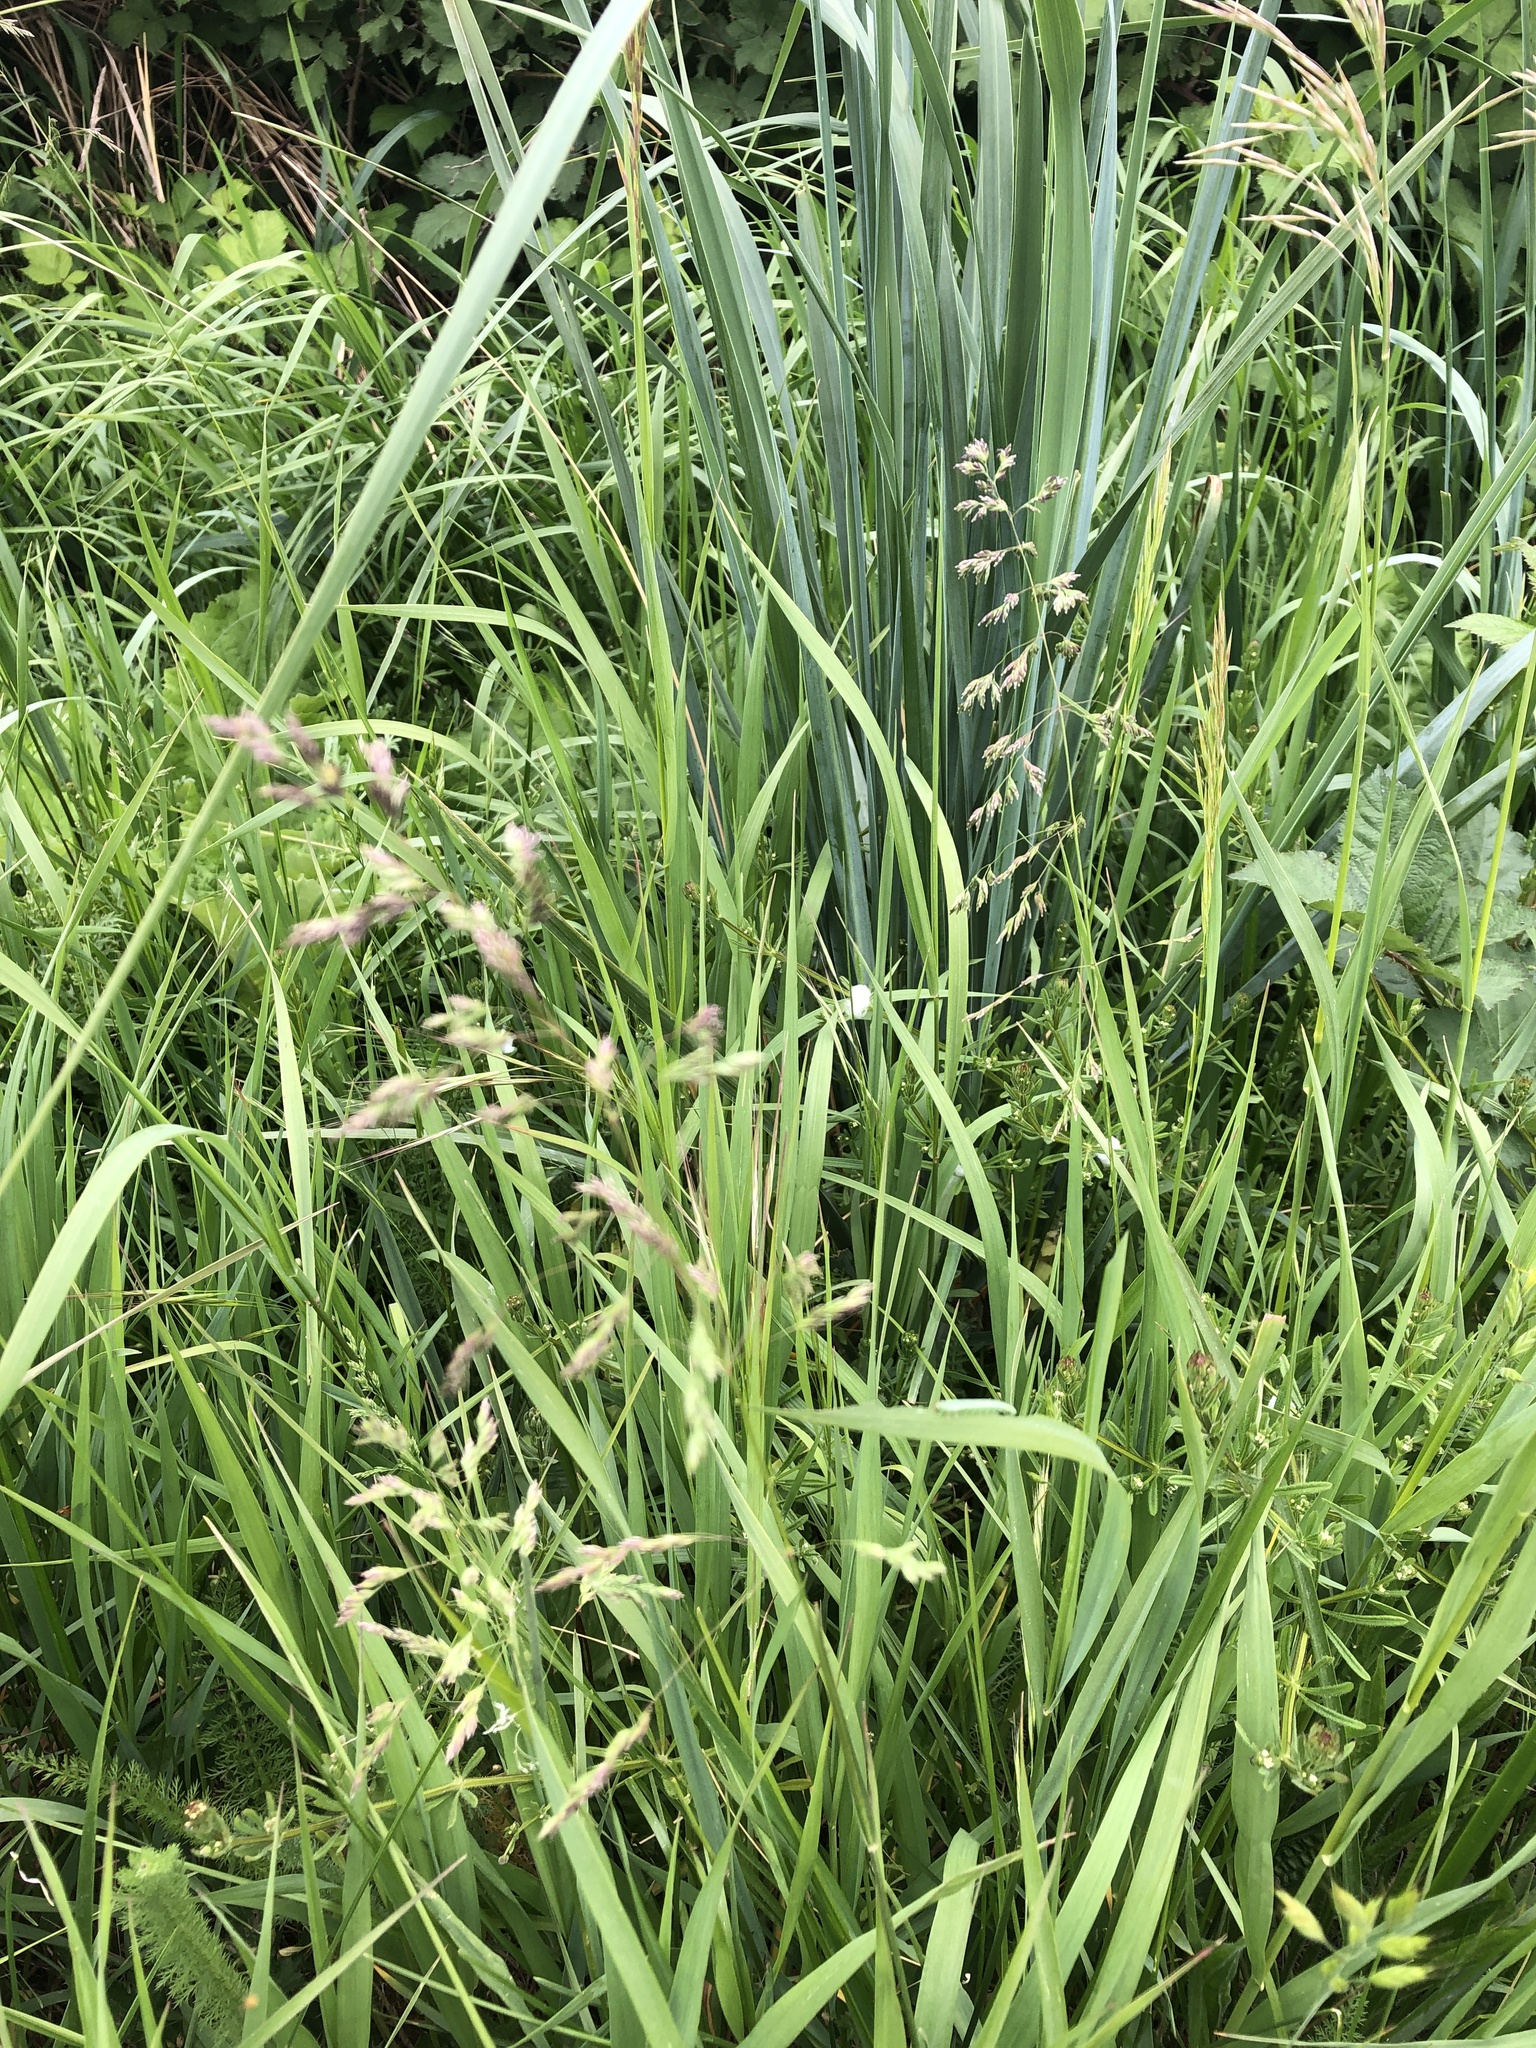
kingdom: Plantae
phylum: Tracheophyta
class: Liliopsida
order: Poales
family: Poaceae
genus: Dactylis
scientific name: Dactylis glomerata
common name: Orchardgrass
